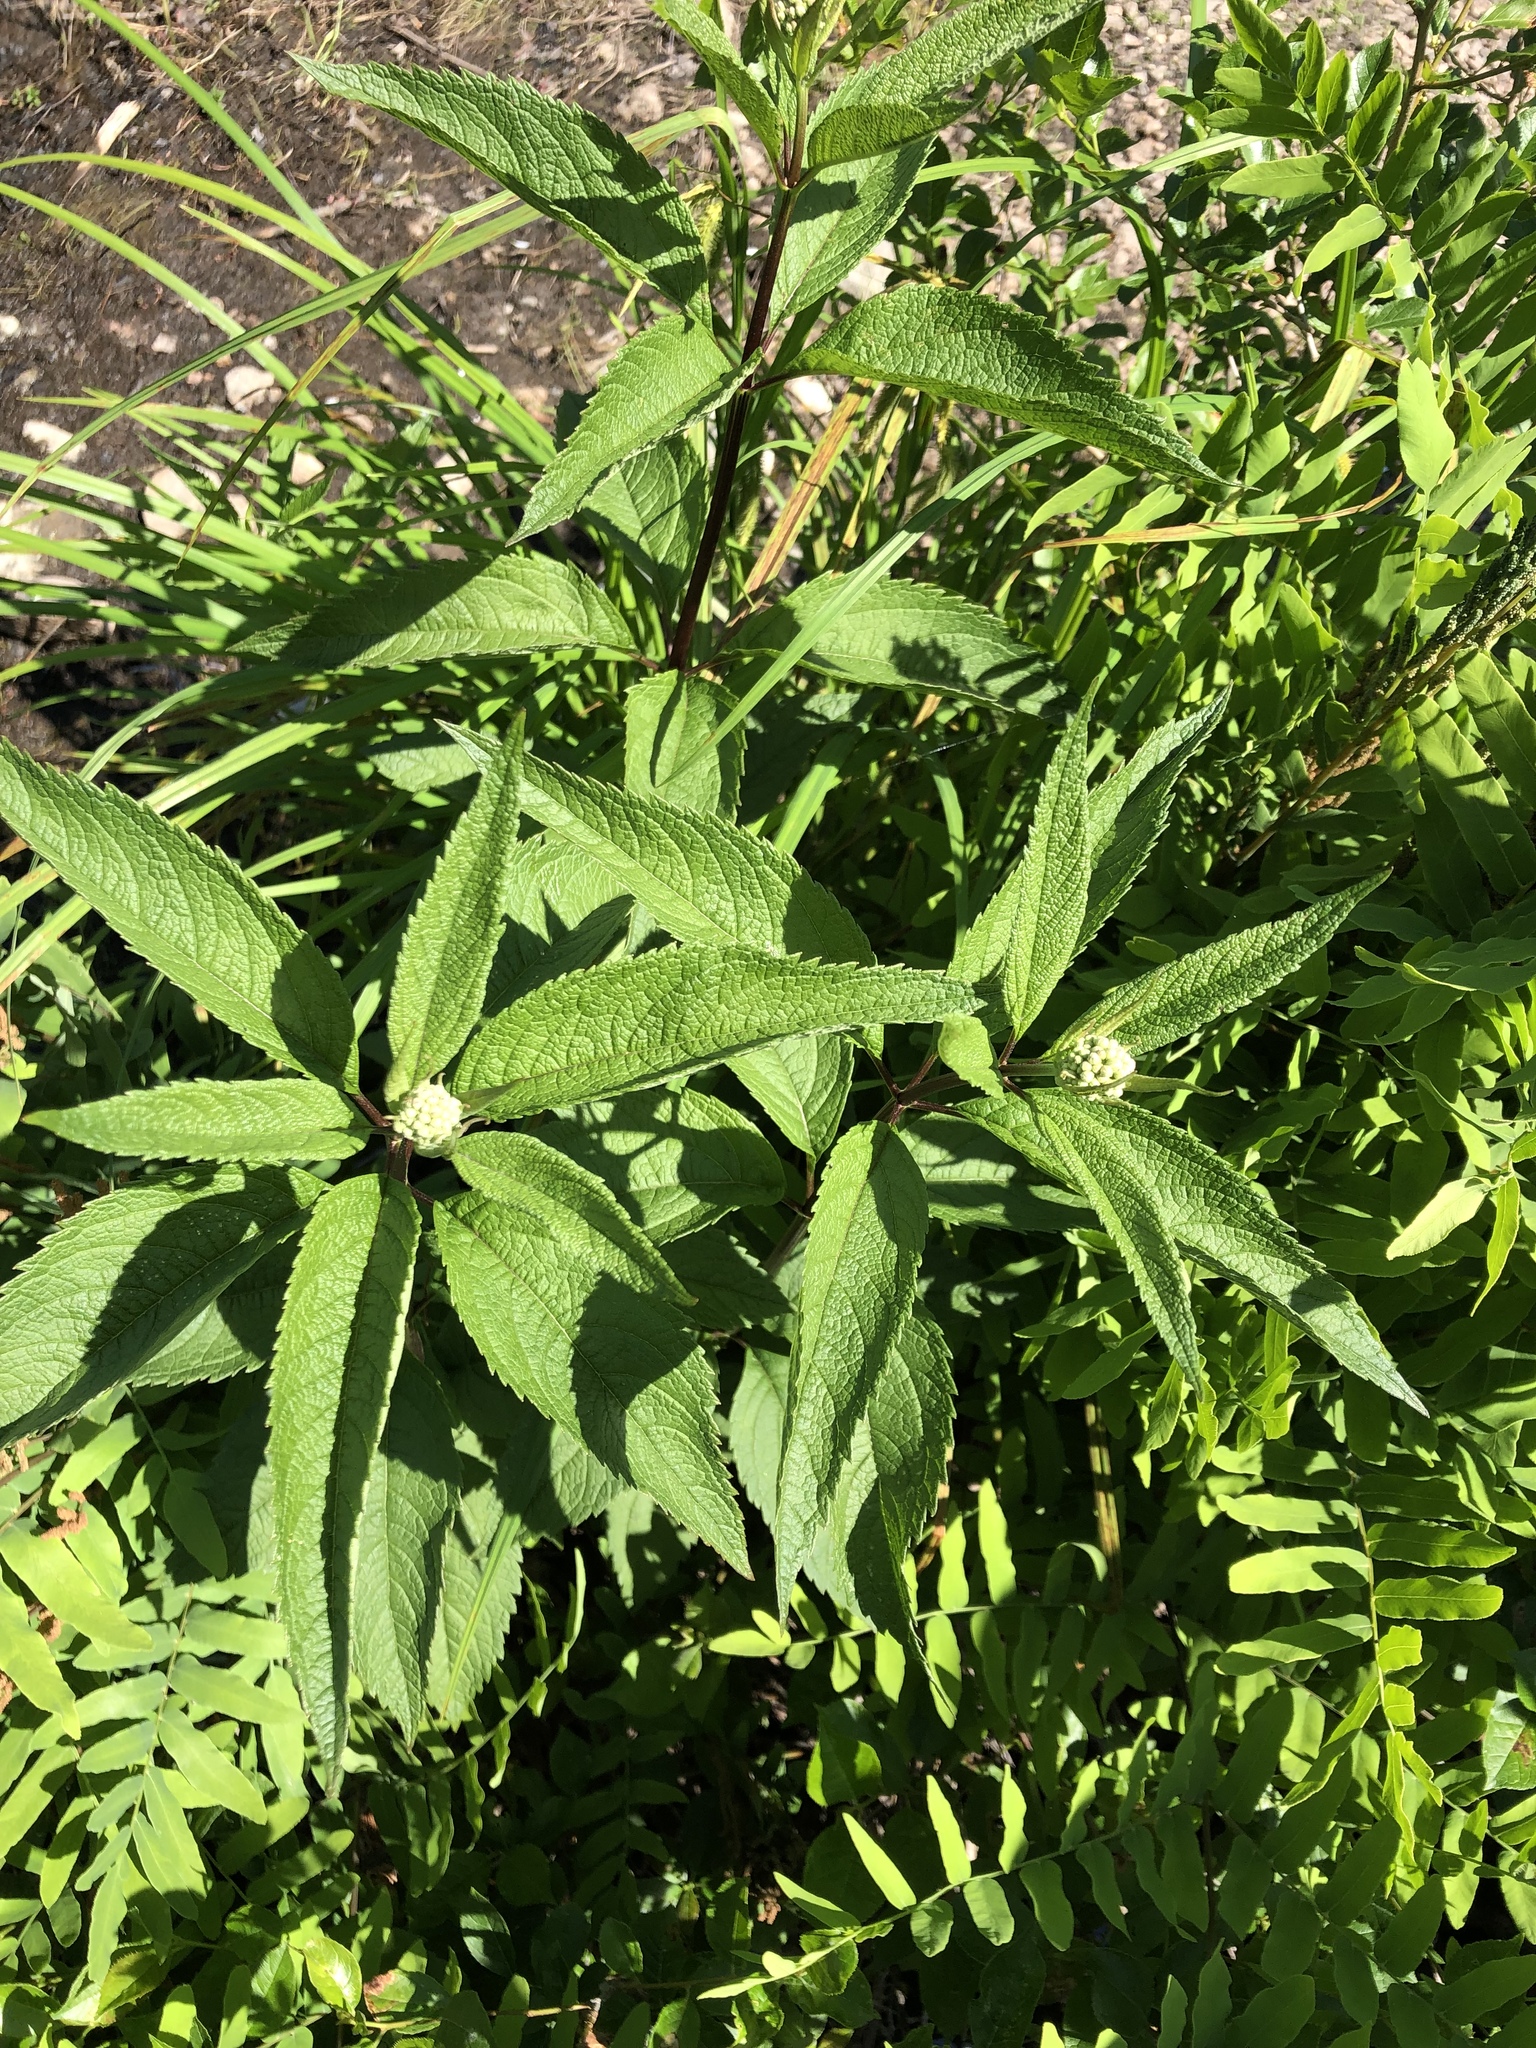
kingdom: Plantae
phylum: Tracheophyta
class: Magnoliopsida
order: Asterales
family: Asteraceae
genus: Eutrochium
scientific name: Eutrochium maculatum
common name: Spotted joe pye weed
